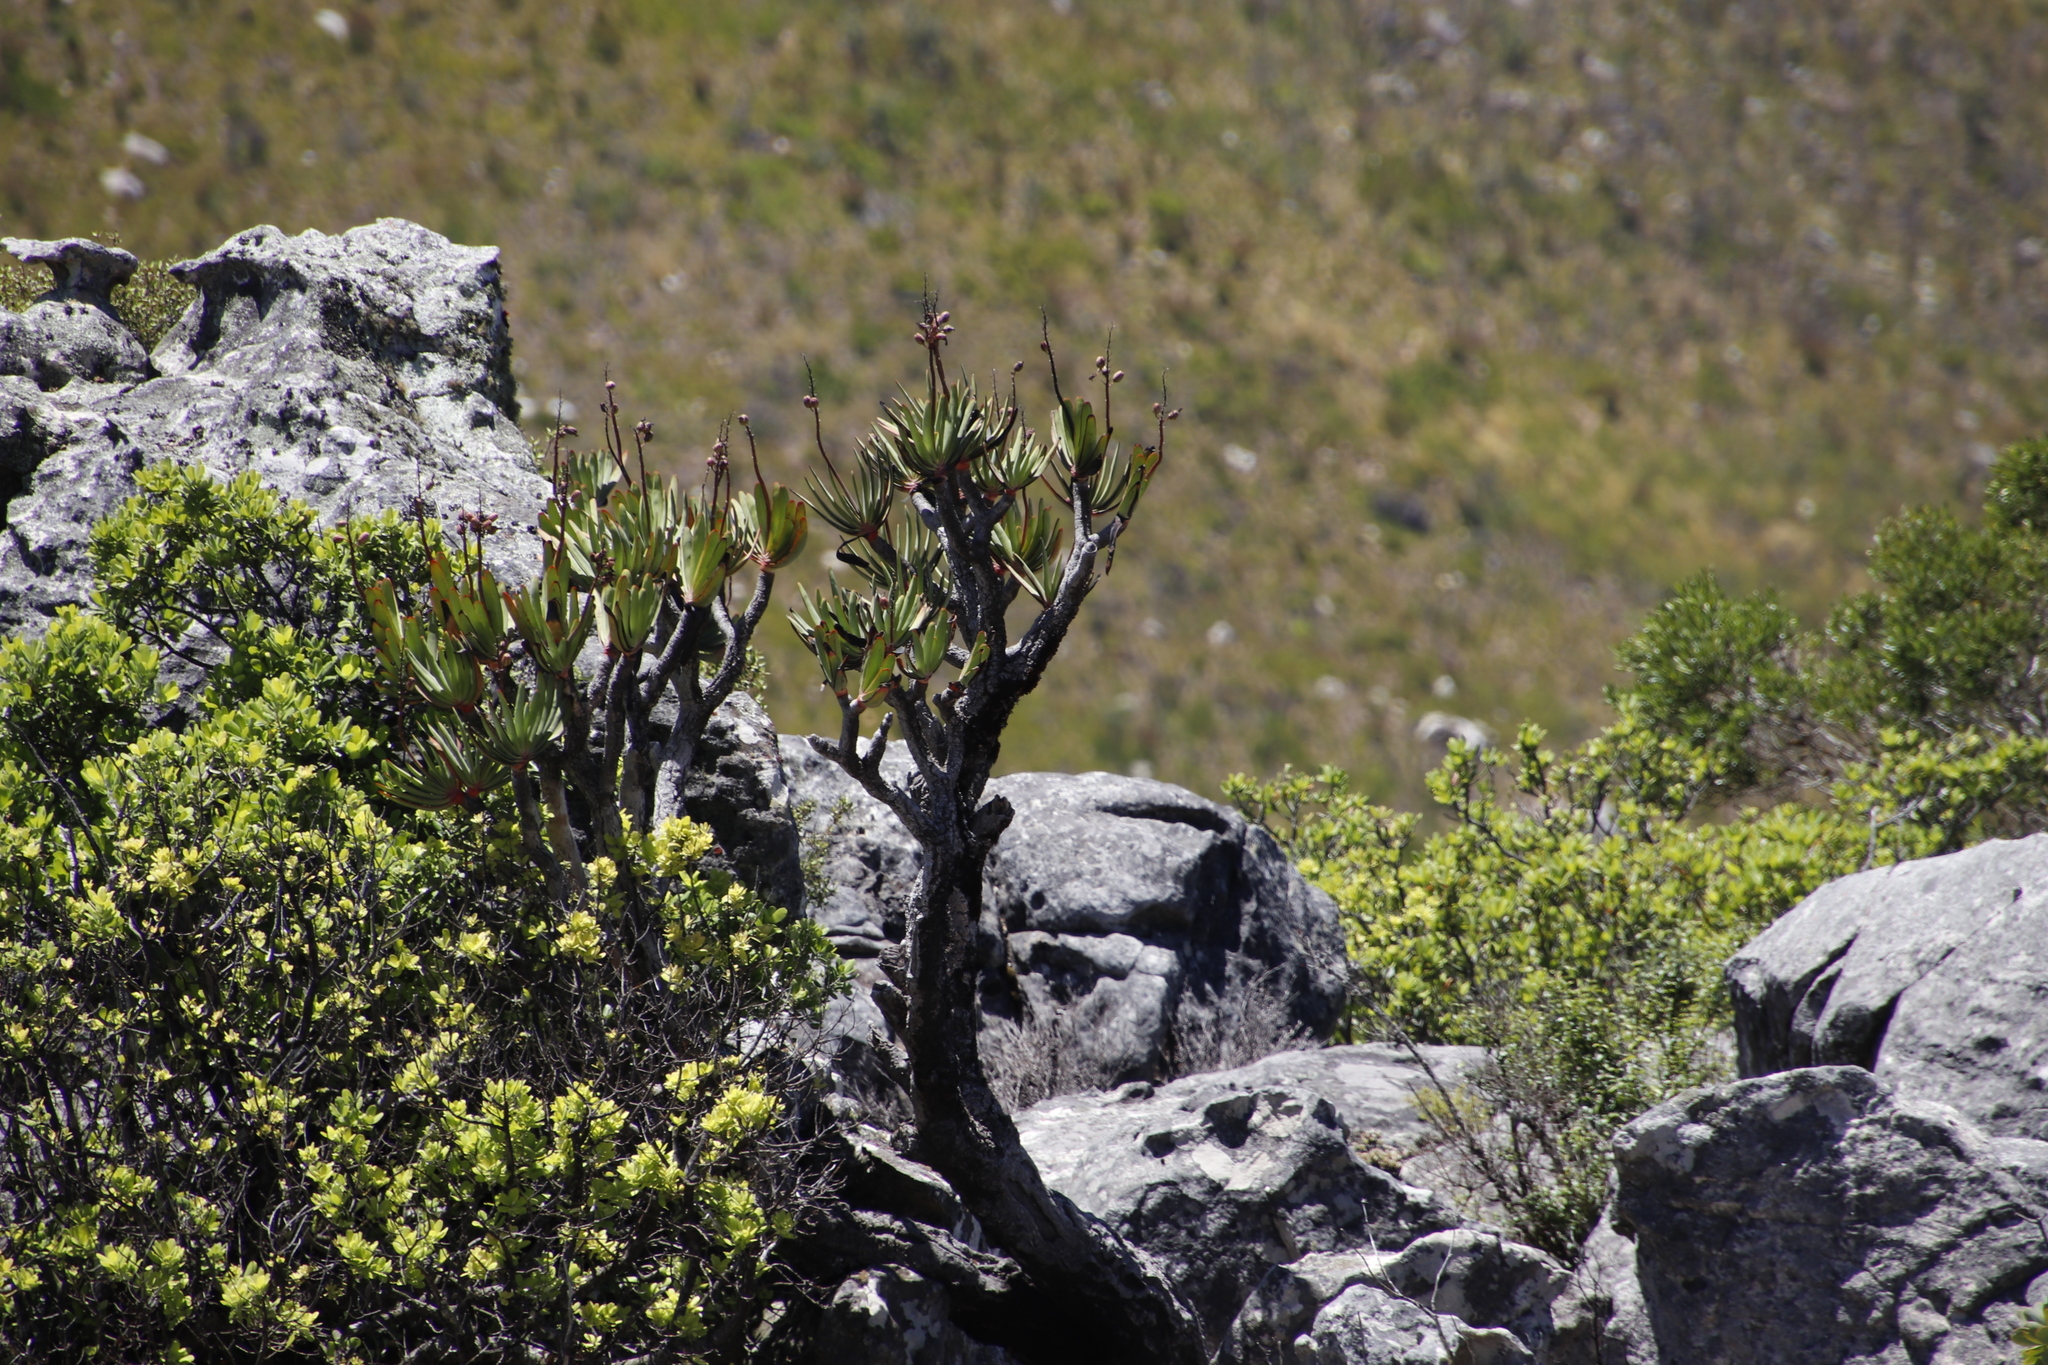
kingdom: Plantae
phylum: Tracheophyta
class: Liliopsida
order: Asparagales
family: Asphodelaceae
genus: Kumara
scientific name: Kumara plicatilis
